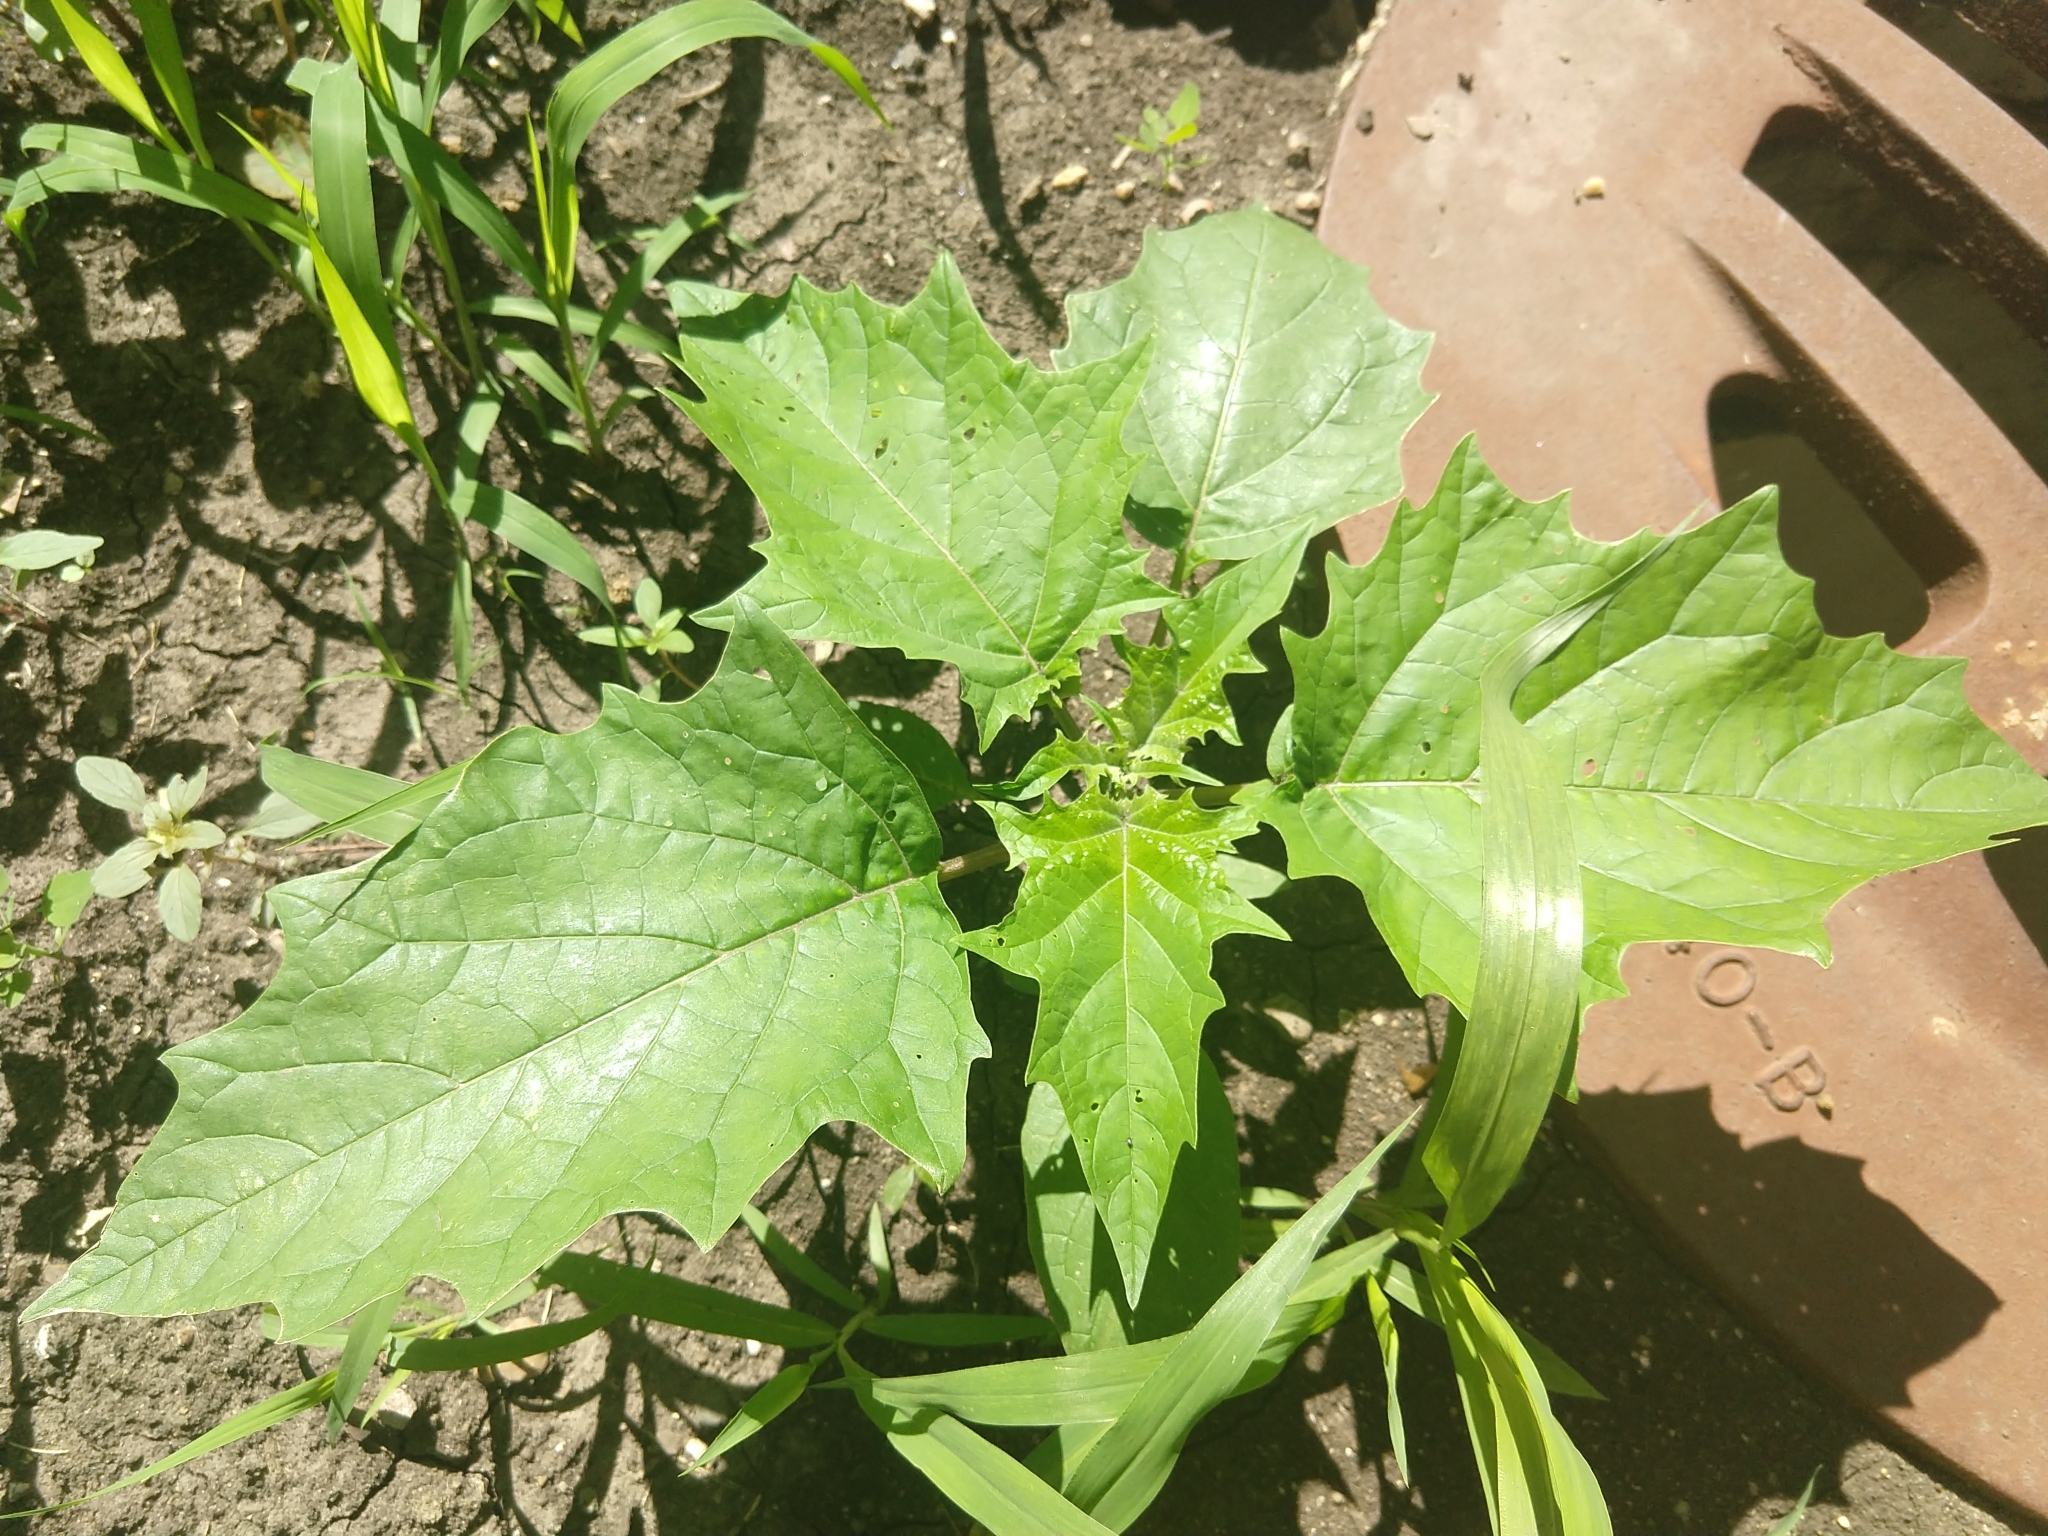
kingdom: Plantae
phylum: Tracheophyta
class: Magnoliopsida
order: Solanales
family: Solanaceae
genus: Datura
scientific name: Datura stramonium
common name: Thorn-apple
